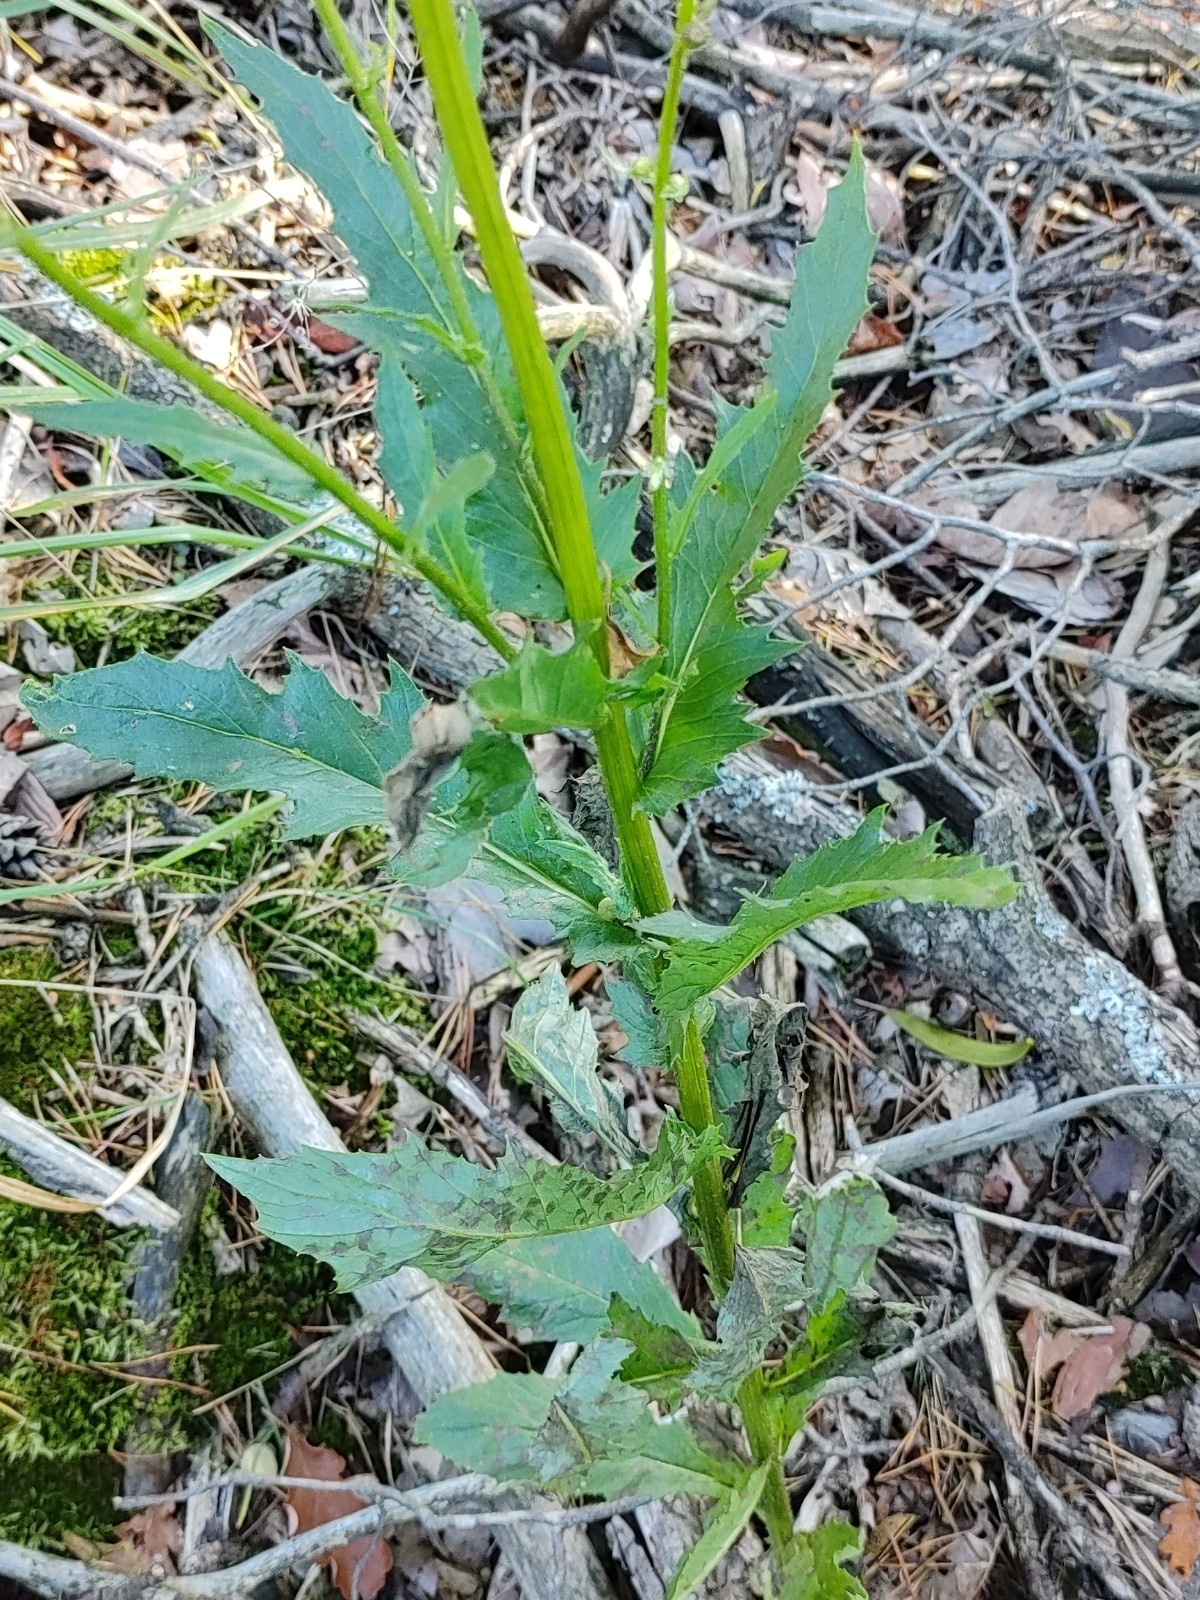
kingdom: Plantae
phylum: Tracheophyta
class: Magnoliopsida
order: Asterales
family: Asteraceae
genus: Erechtites
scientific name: Erechtites hieraciifolius
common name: American burnweed
